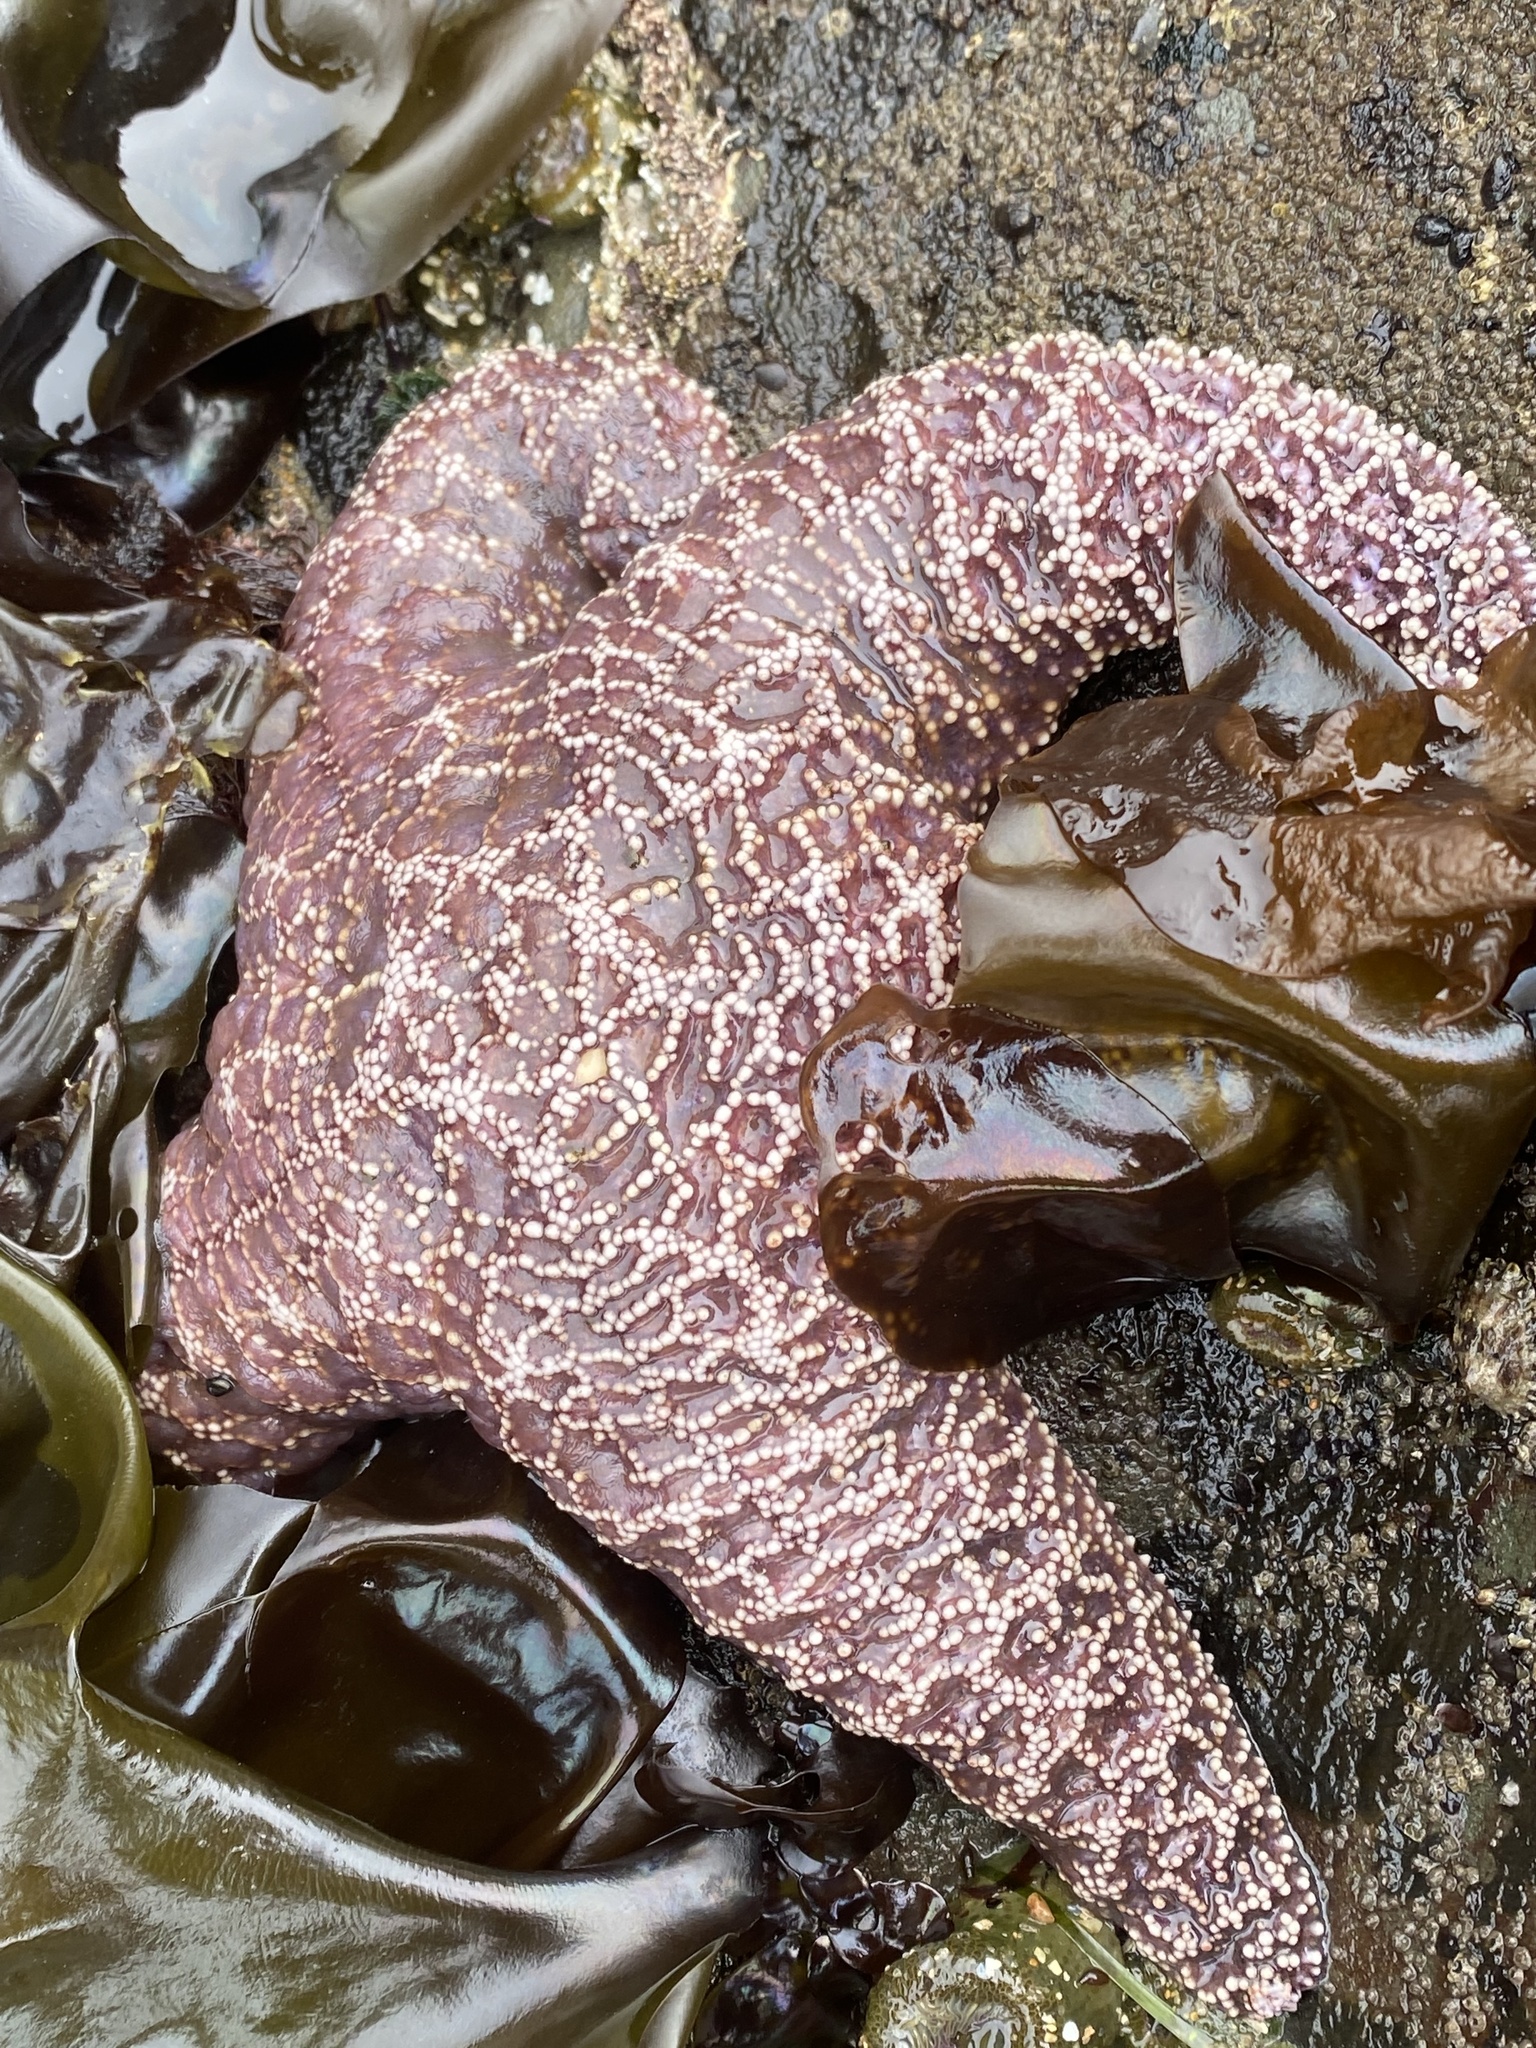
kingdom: Animalia
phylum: Echinodermata
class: Asteroidea
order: Forcipulatida
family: Asteriidae
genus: Pisaster
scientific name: Pisaster ochraceus
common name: Ochre stars
